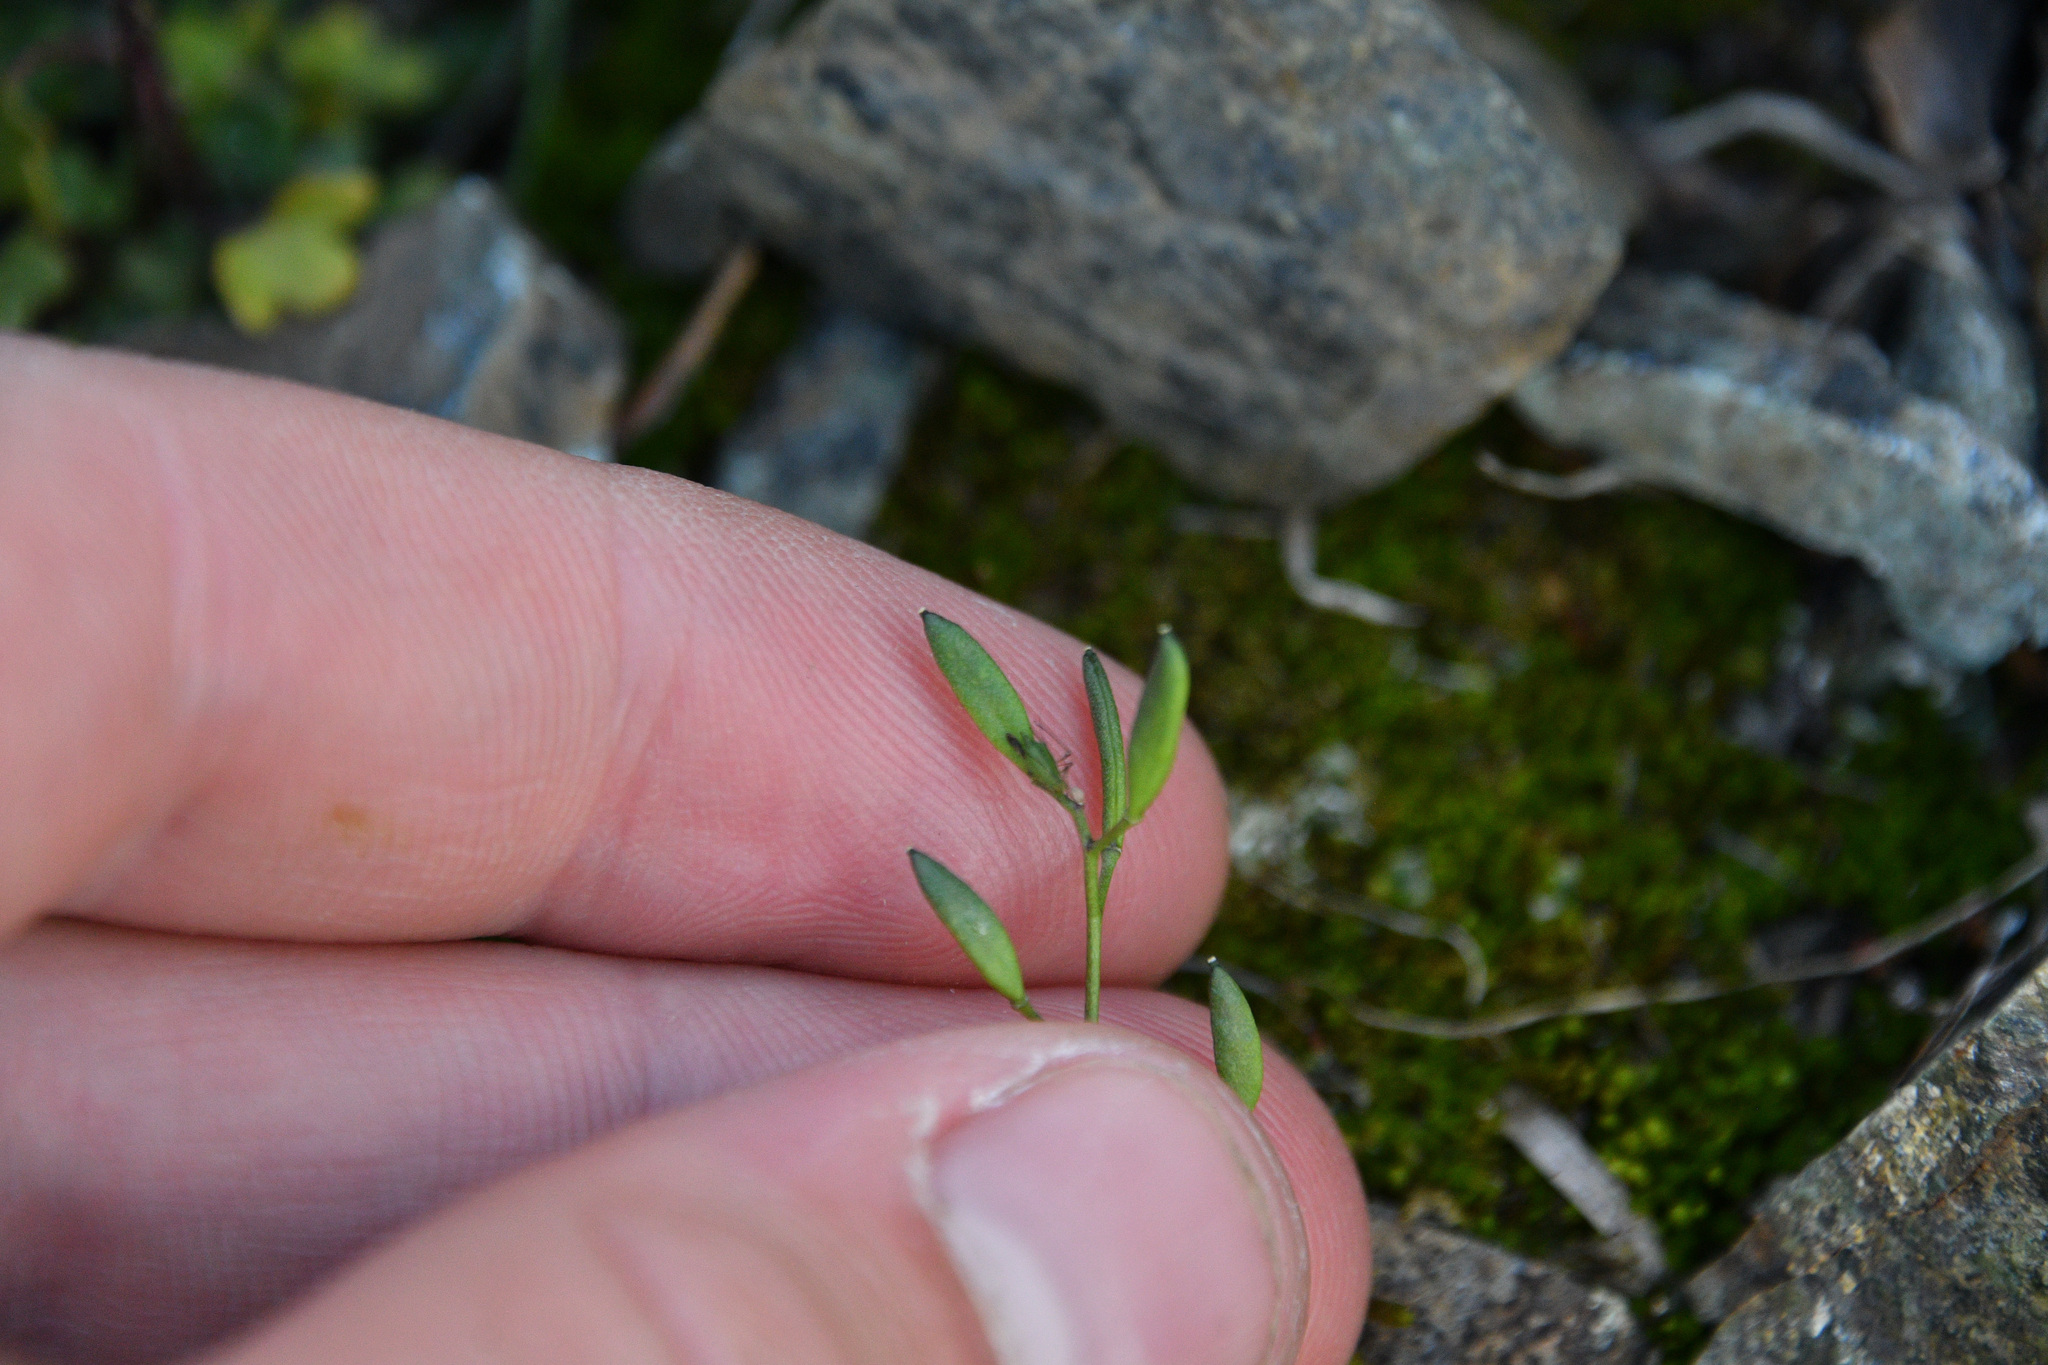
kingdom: Plantae
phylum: Tracheophyta
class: Magnoliopsida
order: Brassicales
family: Brassicaceae
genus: Draba
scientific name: Draba crassifolia
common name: Rocky mountain draba
